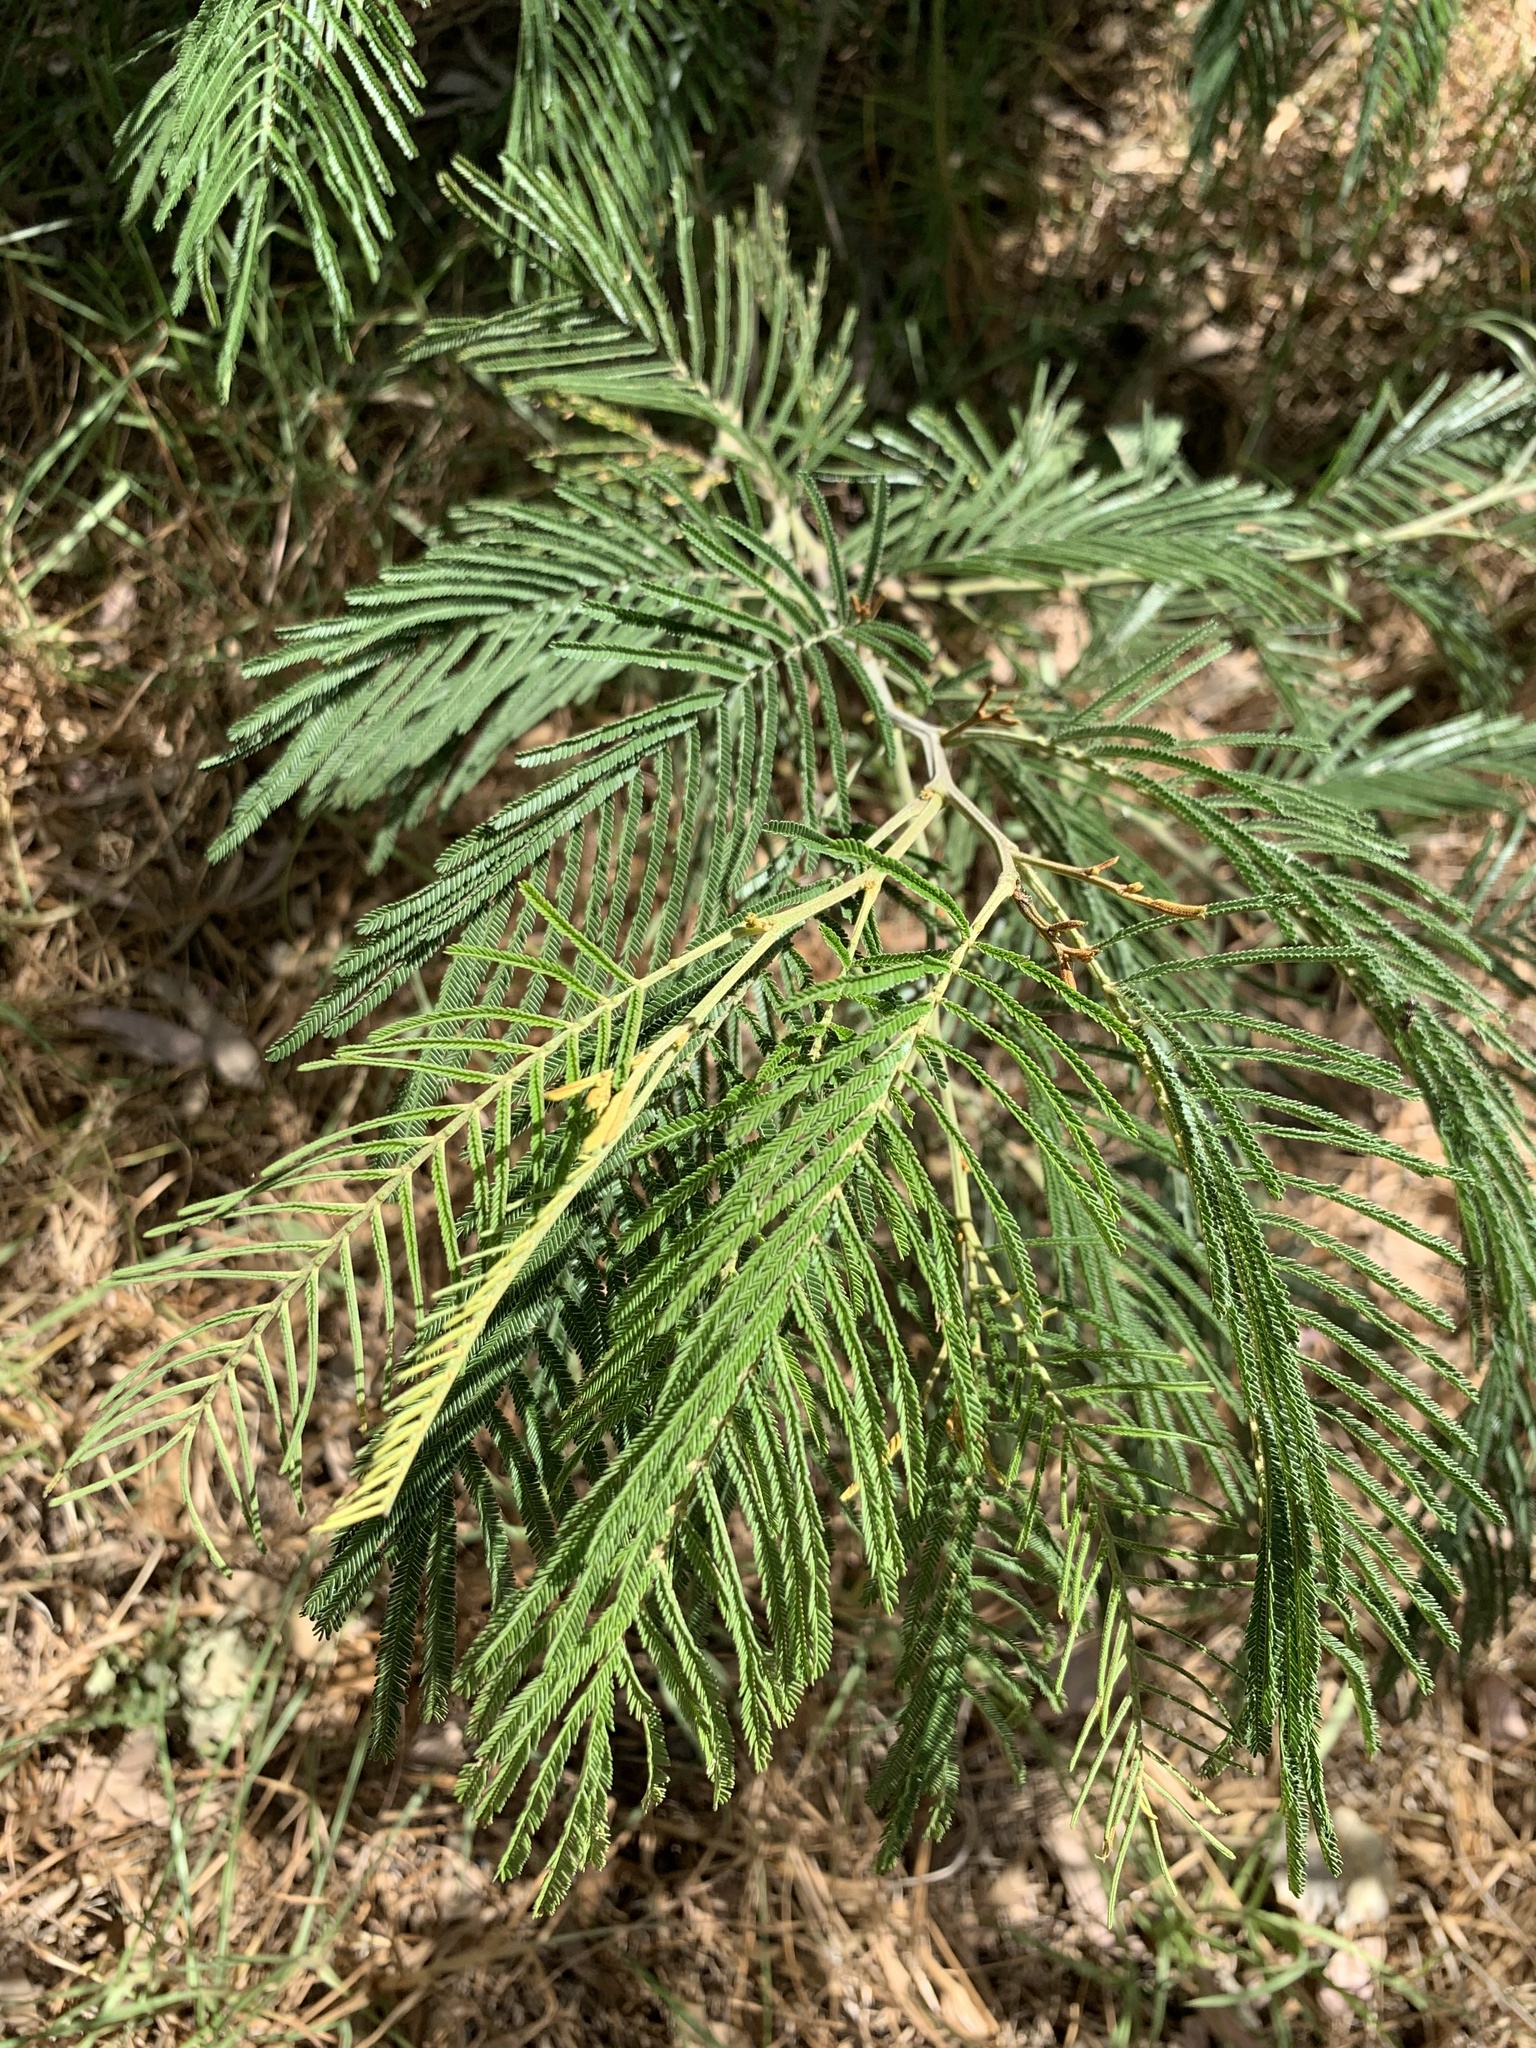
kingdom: Plantae
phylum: Tracheophyta
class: Magnoliopsida
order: Fabales
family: Fabaceae
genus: Acacia
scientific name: Acacia mearnsii
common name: Black wattle
